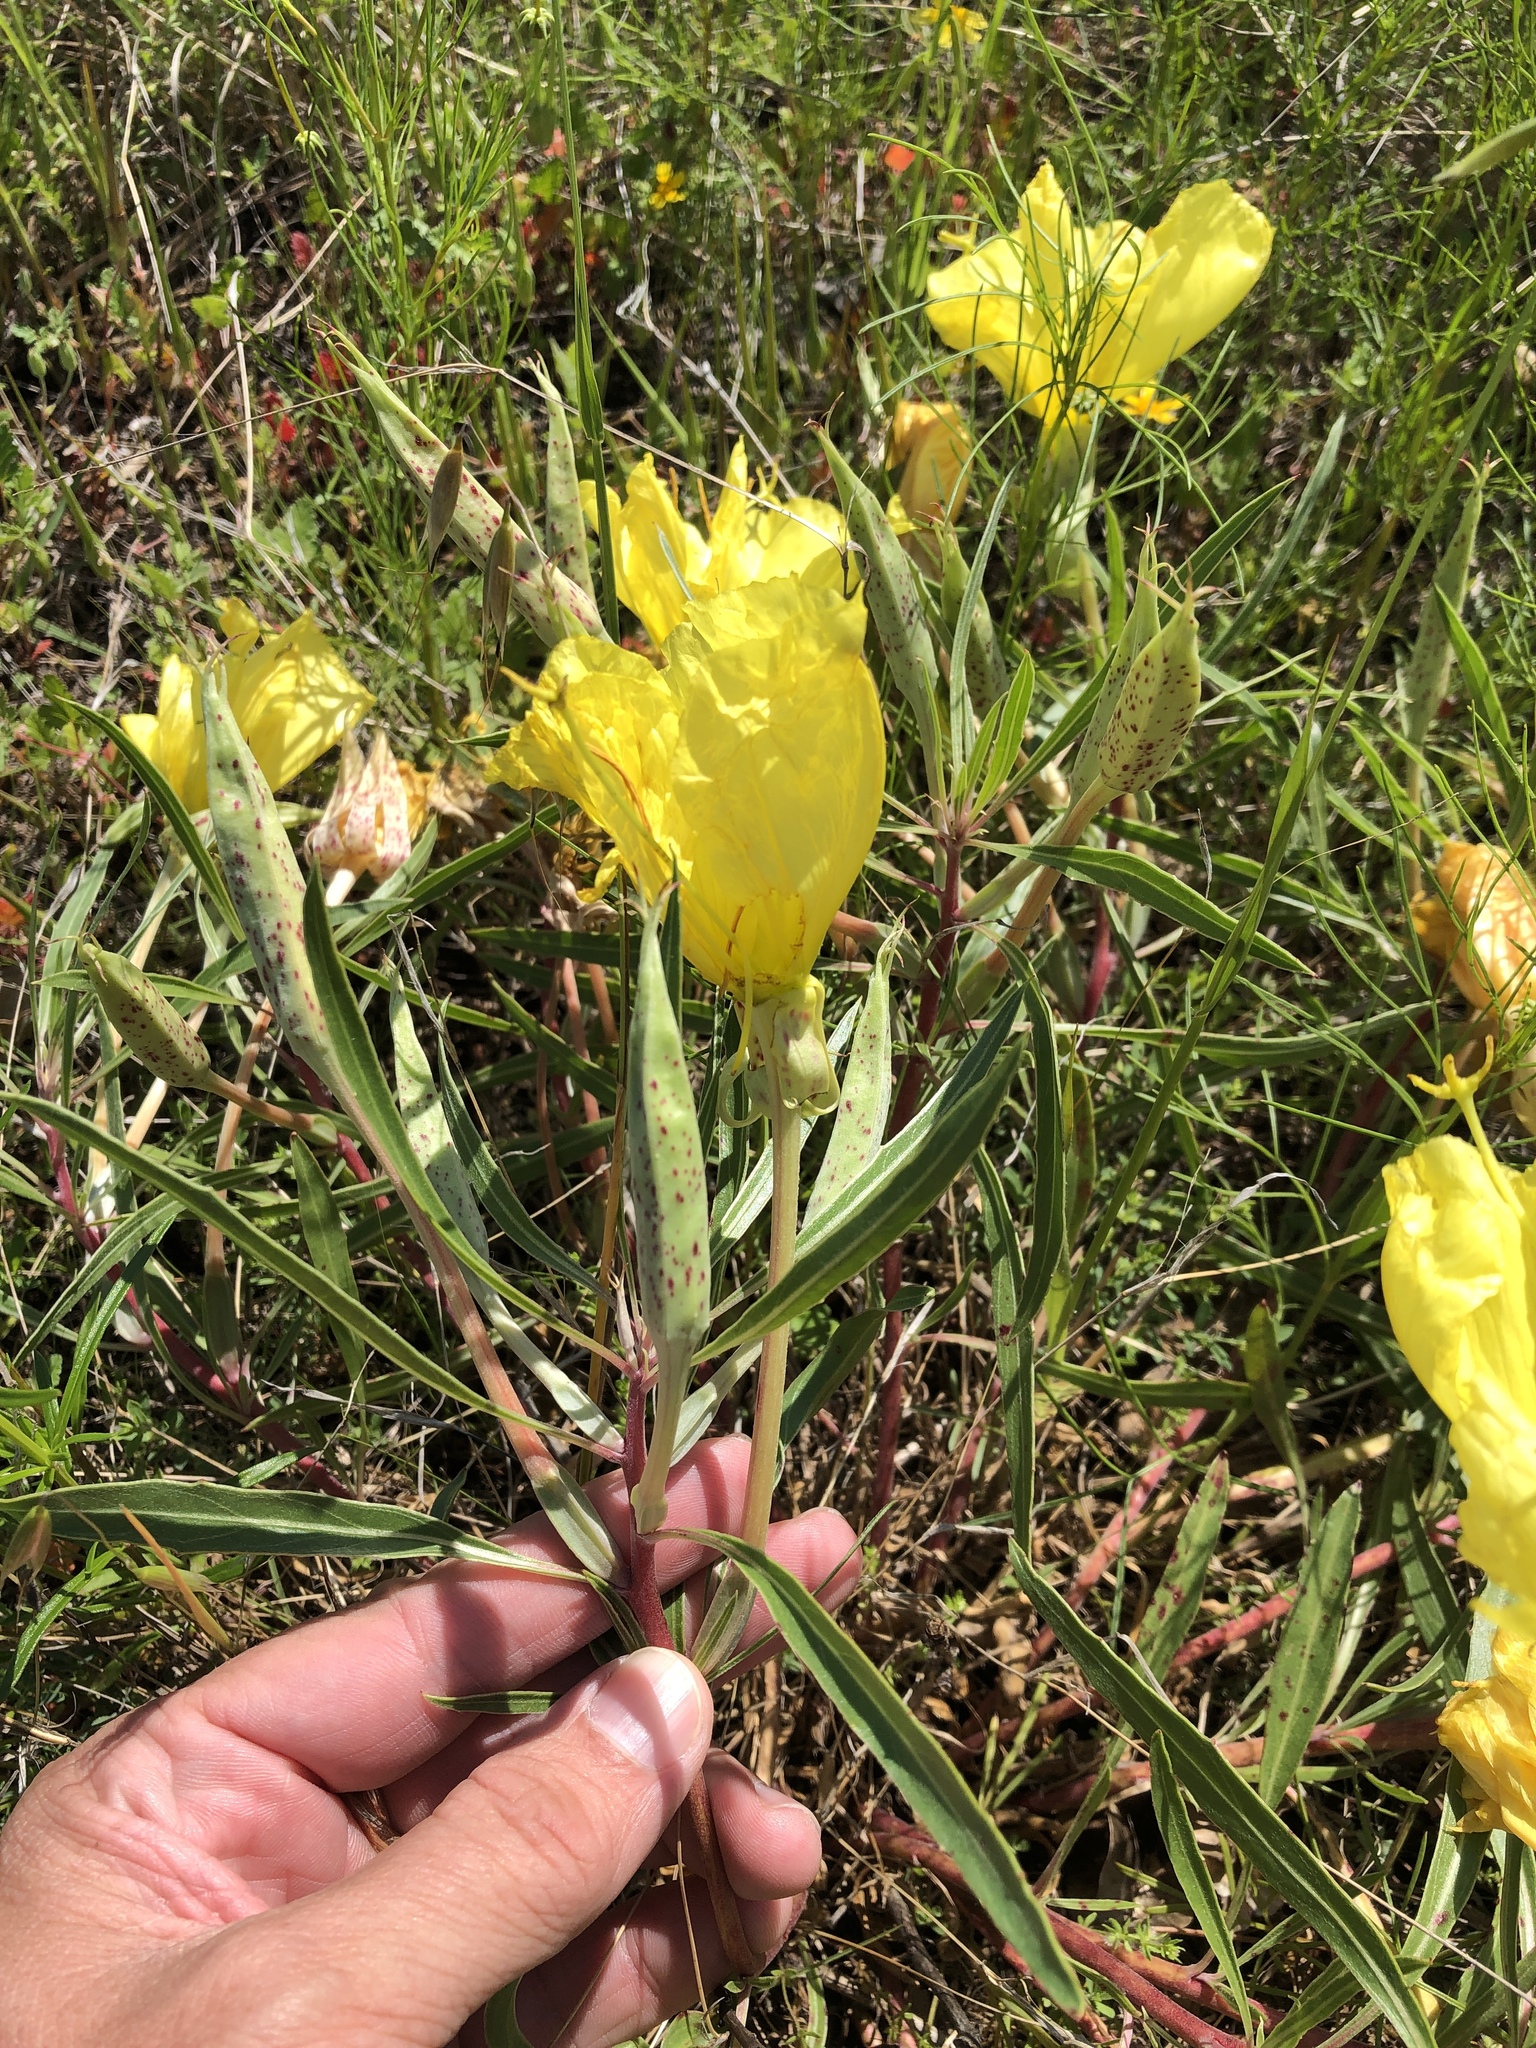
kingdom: Plantae
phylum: Tracheophyta
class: Magnoliopsida
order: Myrtales
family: Onagraceae
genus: Oenothera
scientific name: Oenothera macrocarpa
